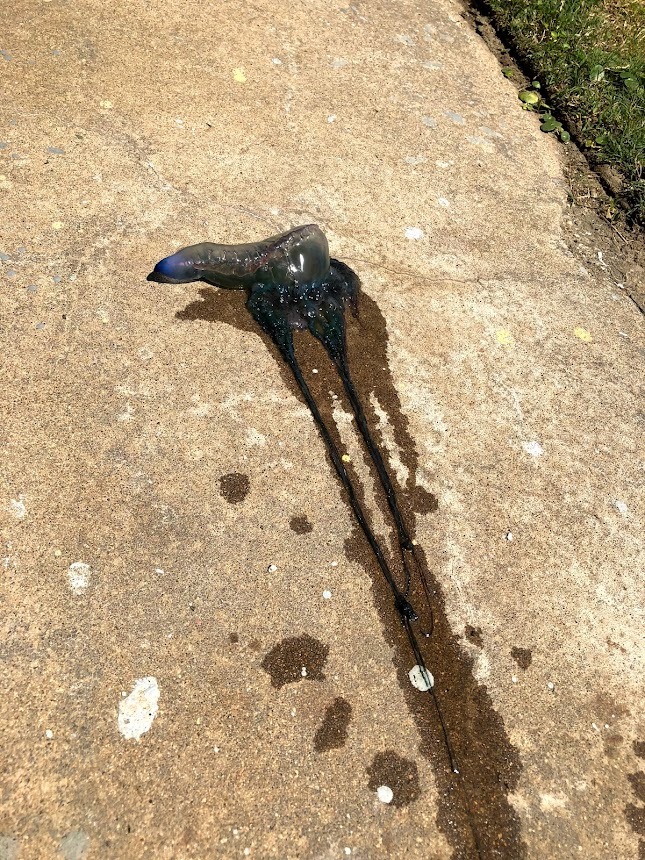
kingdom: Animalia
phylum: Cnidaria
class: Hydrozoa
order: Siphonophorae
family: Physaliidae
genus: Physalia
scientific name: Physalia physalis
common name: Portuguese man-of-war
